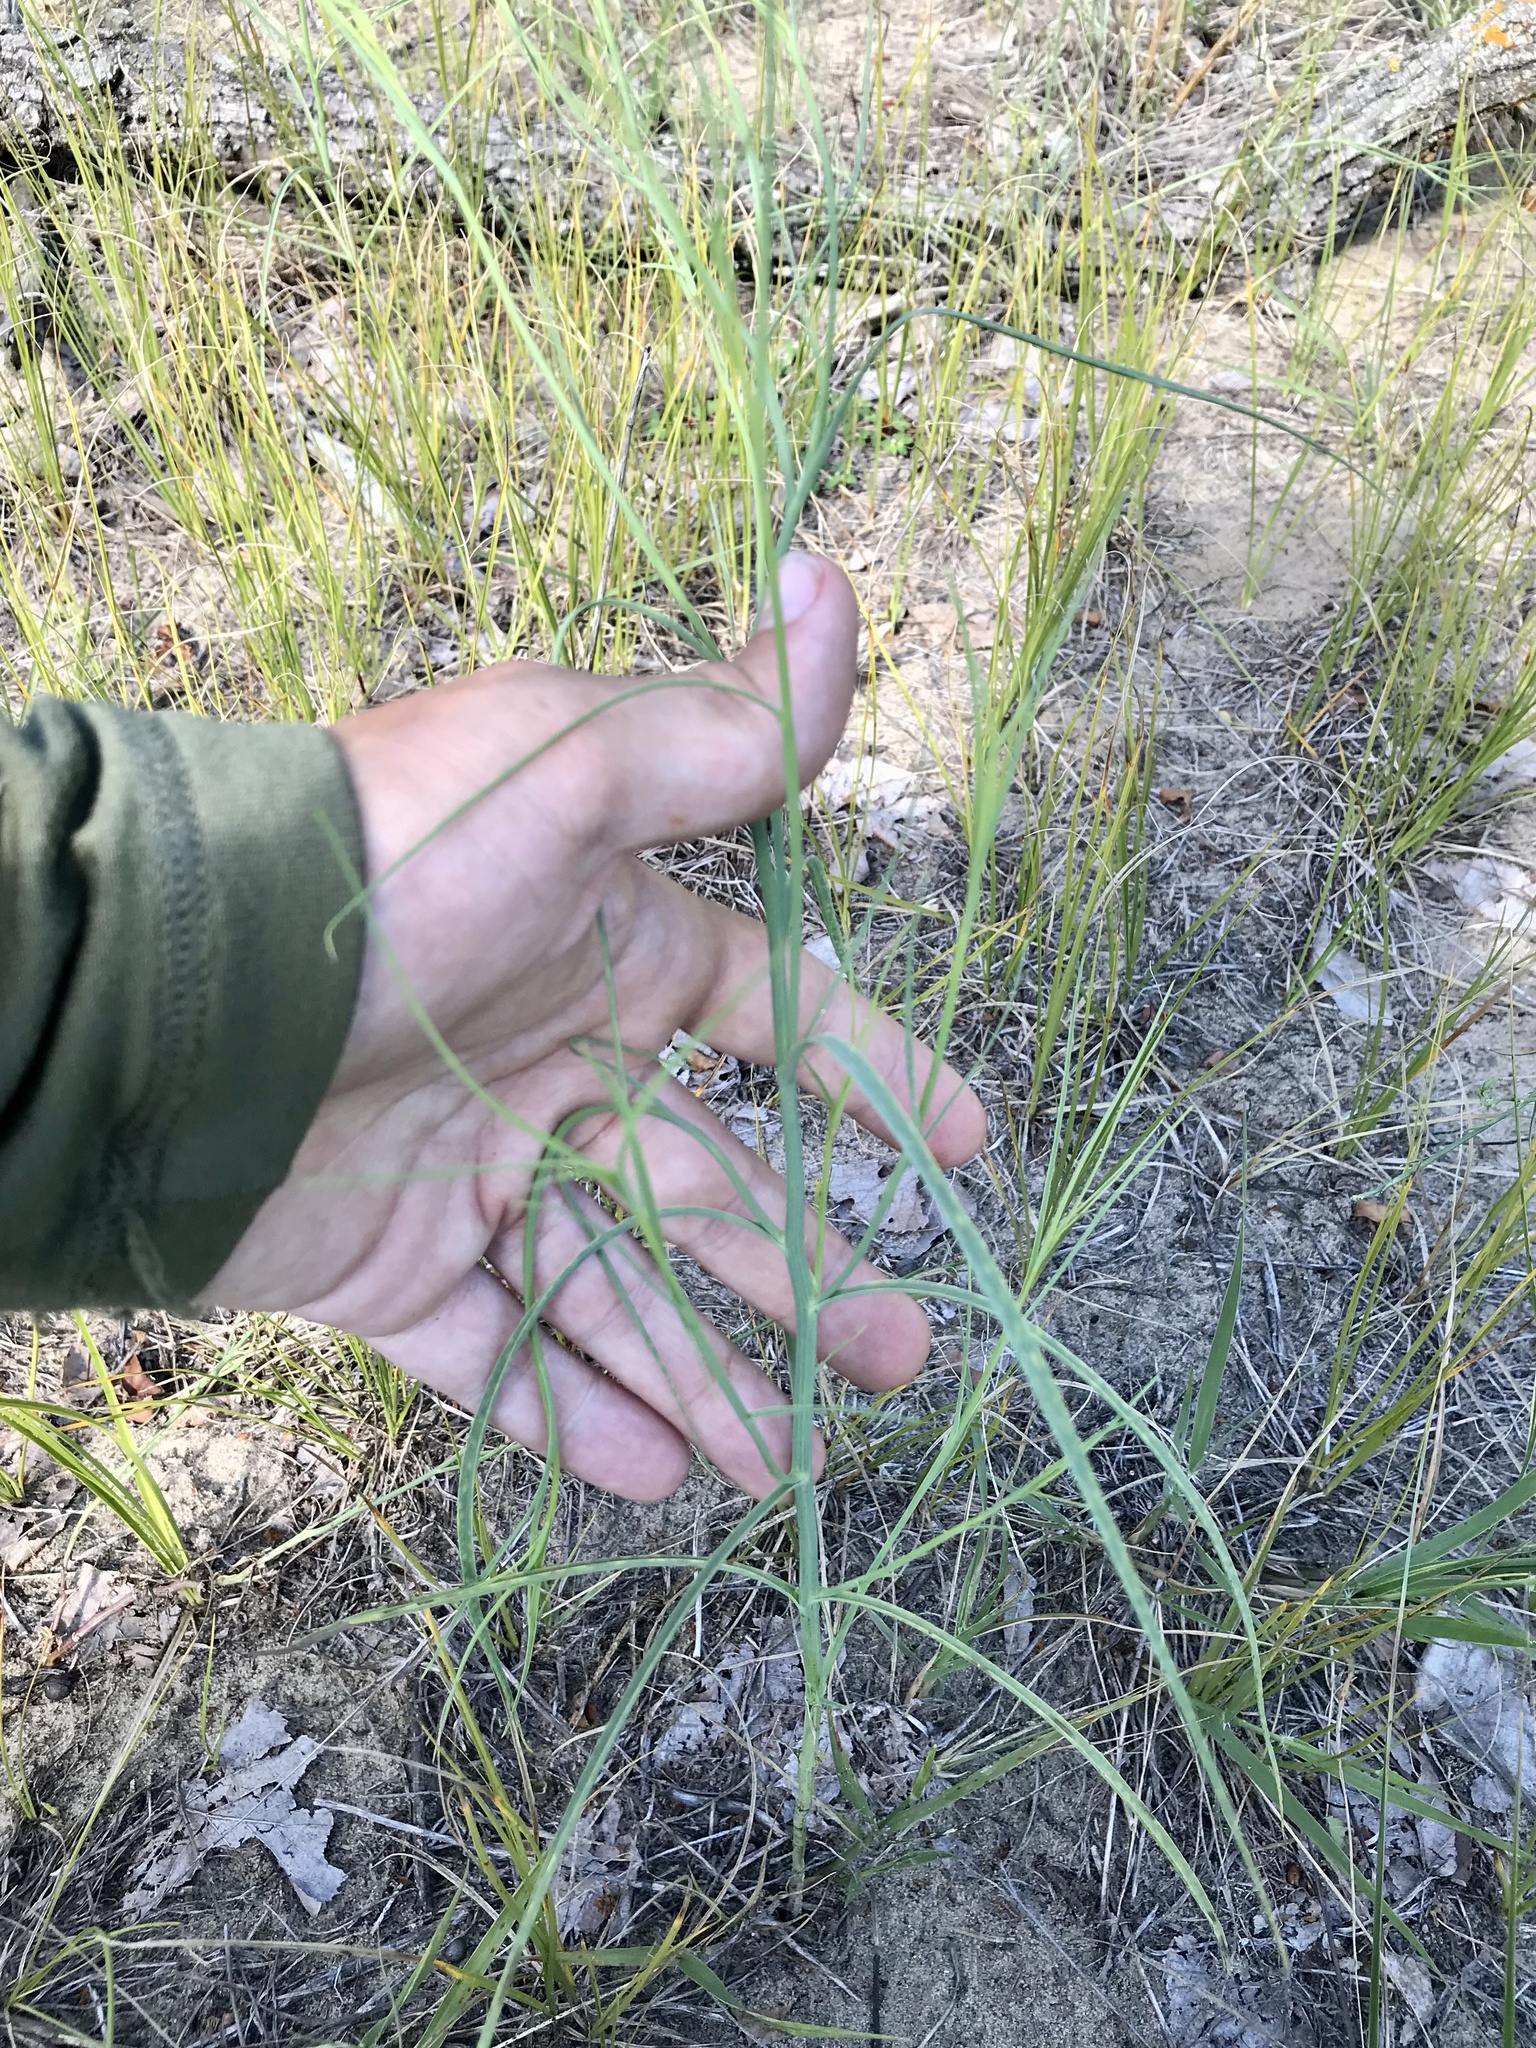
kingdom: Plantae
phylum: Tracheophyta
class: Magnoliopsida
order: Asterales
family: Asteraceae
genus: Shinnersoseris
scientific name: Shinnersoseris rostrata
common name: Annual skeleton-weed
